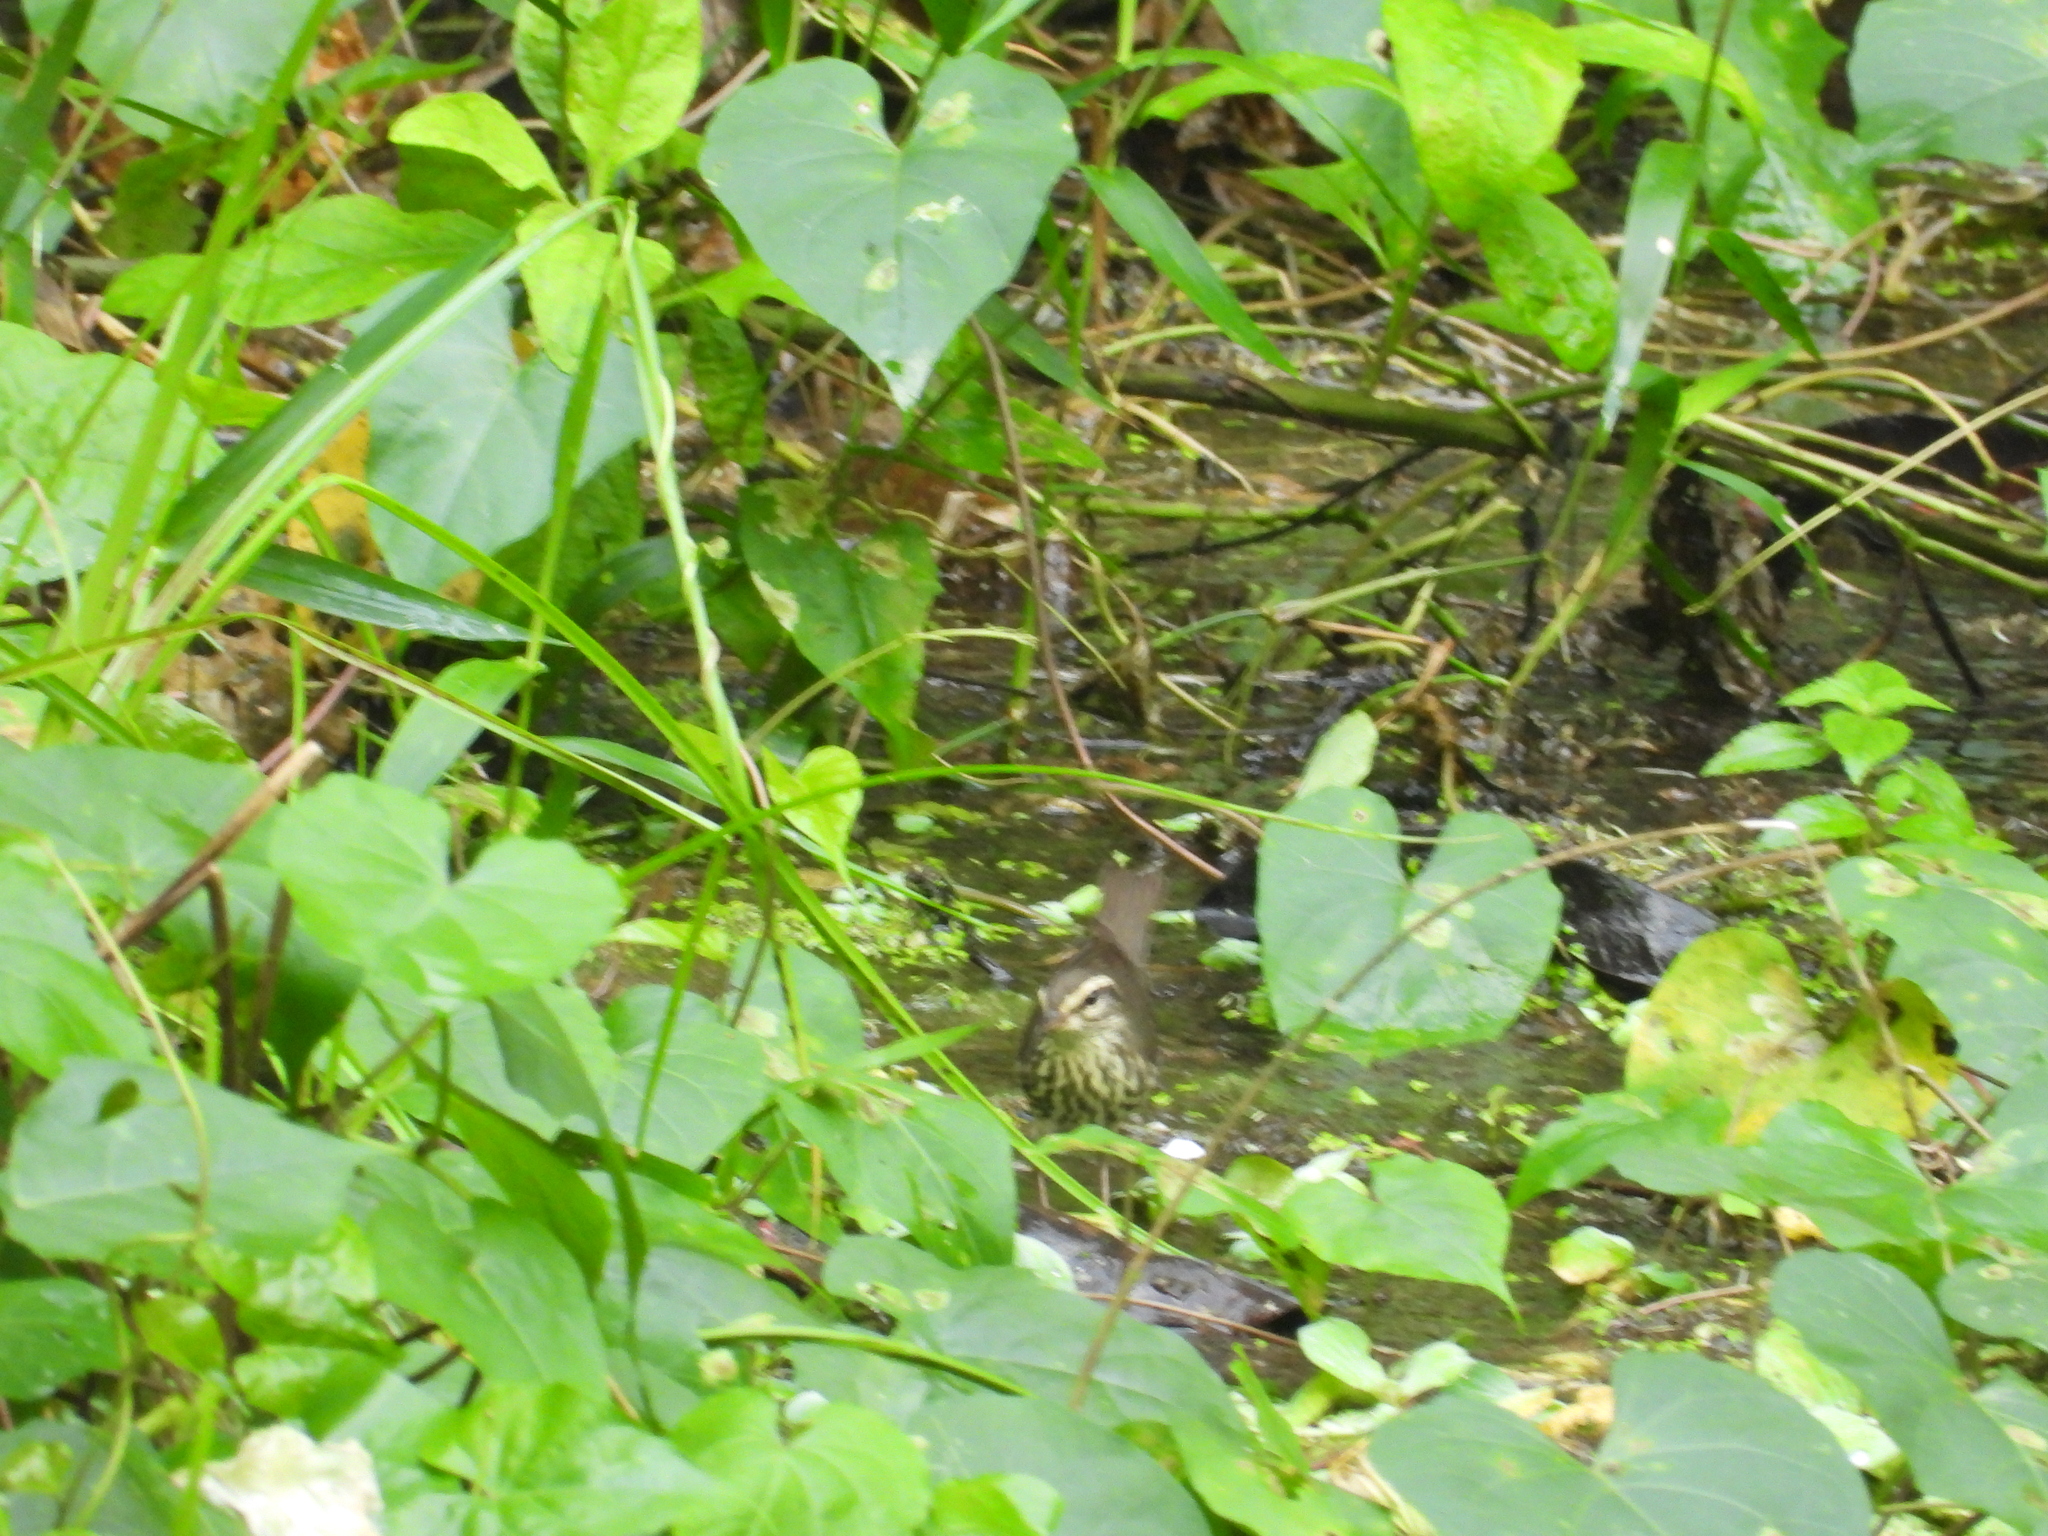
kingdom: Animalia
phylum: Chordata
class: Aves
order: Passeriformes
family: Parulidae
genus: Parkesia
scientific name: Parkesia noveboracensis
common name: Northern waterthrush
